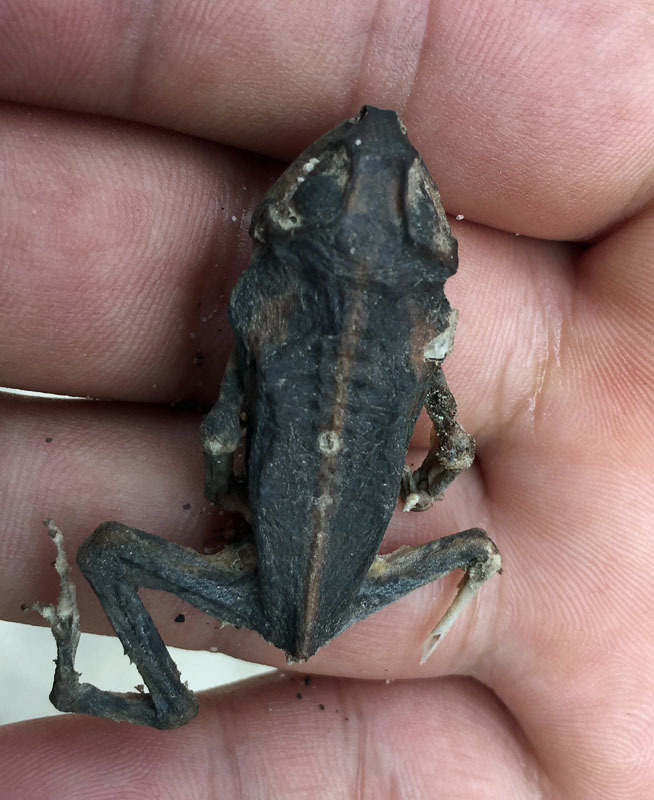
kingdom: Animalia
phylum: Chordata
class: Amphibia
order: Anura
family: Bufonidae
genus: Incilius
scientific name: Incilius mazatlanensis
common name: Sinaloa toad
